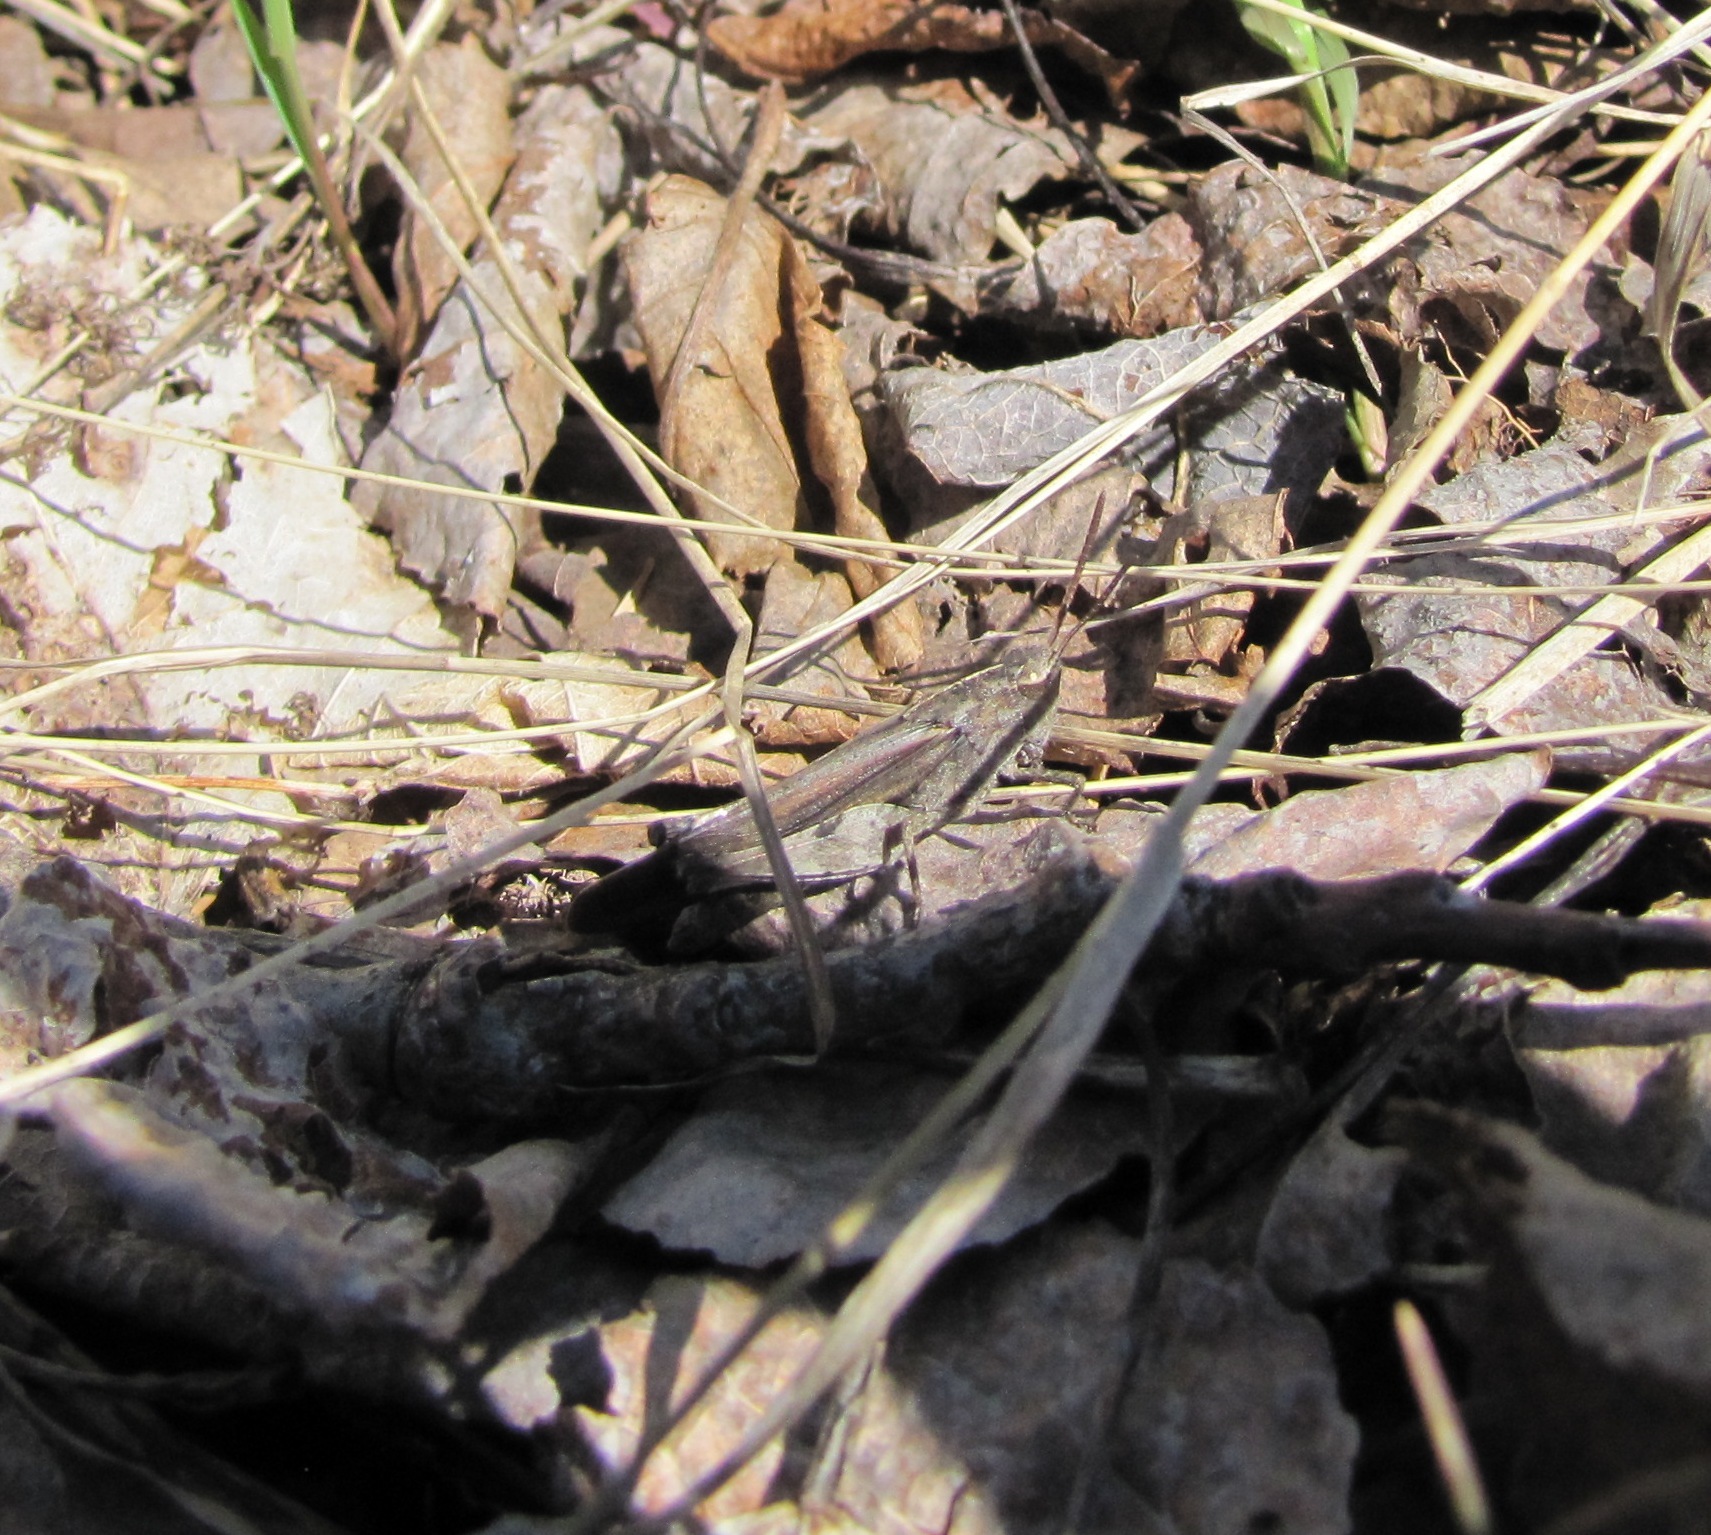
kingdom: Animalia
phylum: Arthropoda
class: Insecta
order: Orthoptera
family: Acrididae
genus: Chortophaga
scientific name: Chortophaga viridifasciata
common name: Green-striped grasshopper
